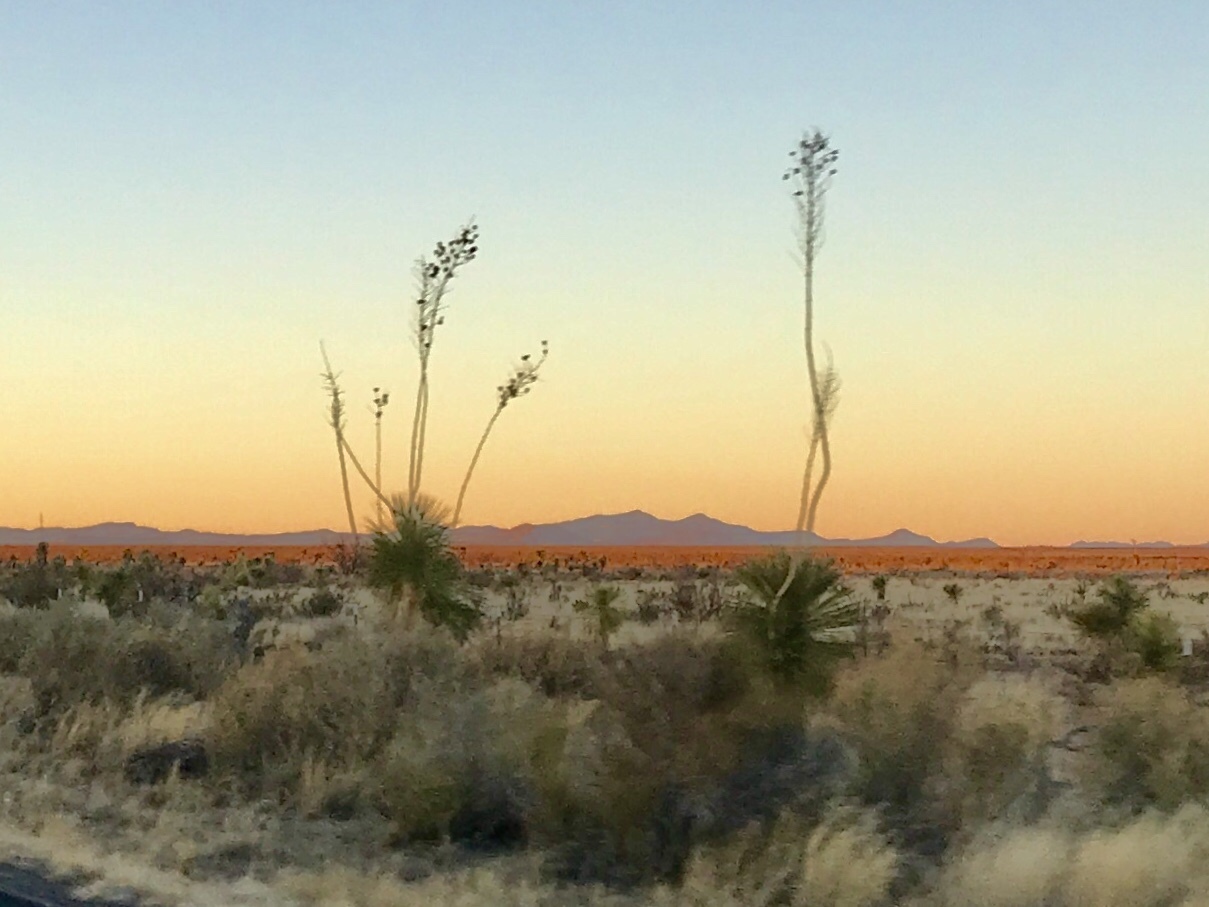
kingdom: Plantae
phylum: Tracheophyta
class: Liliopsida
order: Asparagales
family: Asparagaceae
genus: Yucca
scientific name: Yucca elata
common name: Palmella
